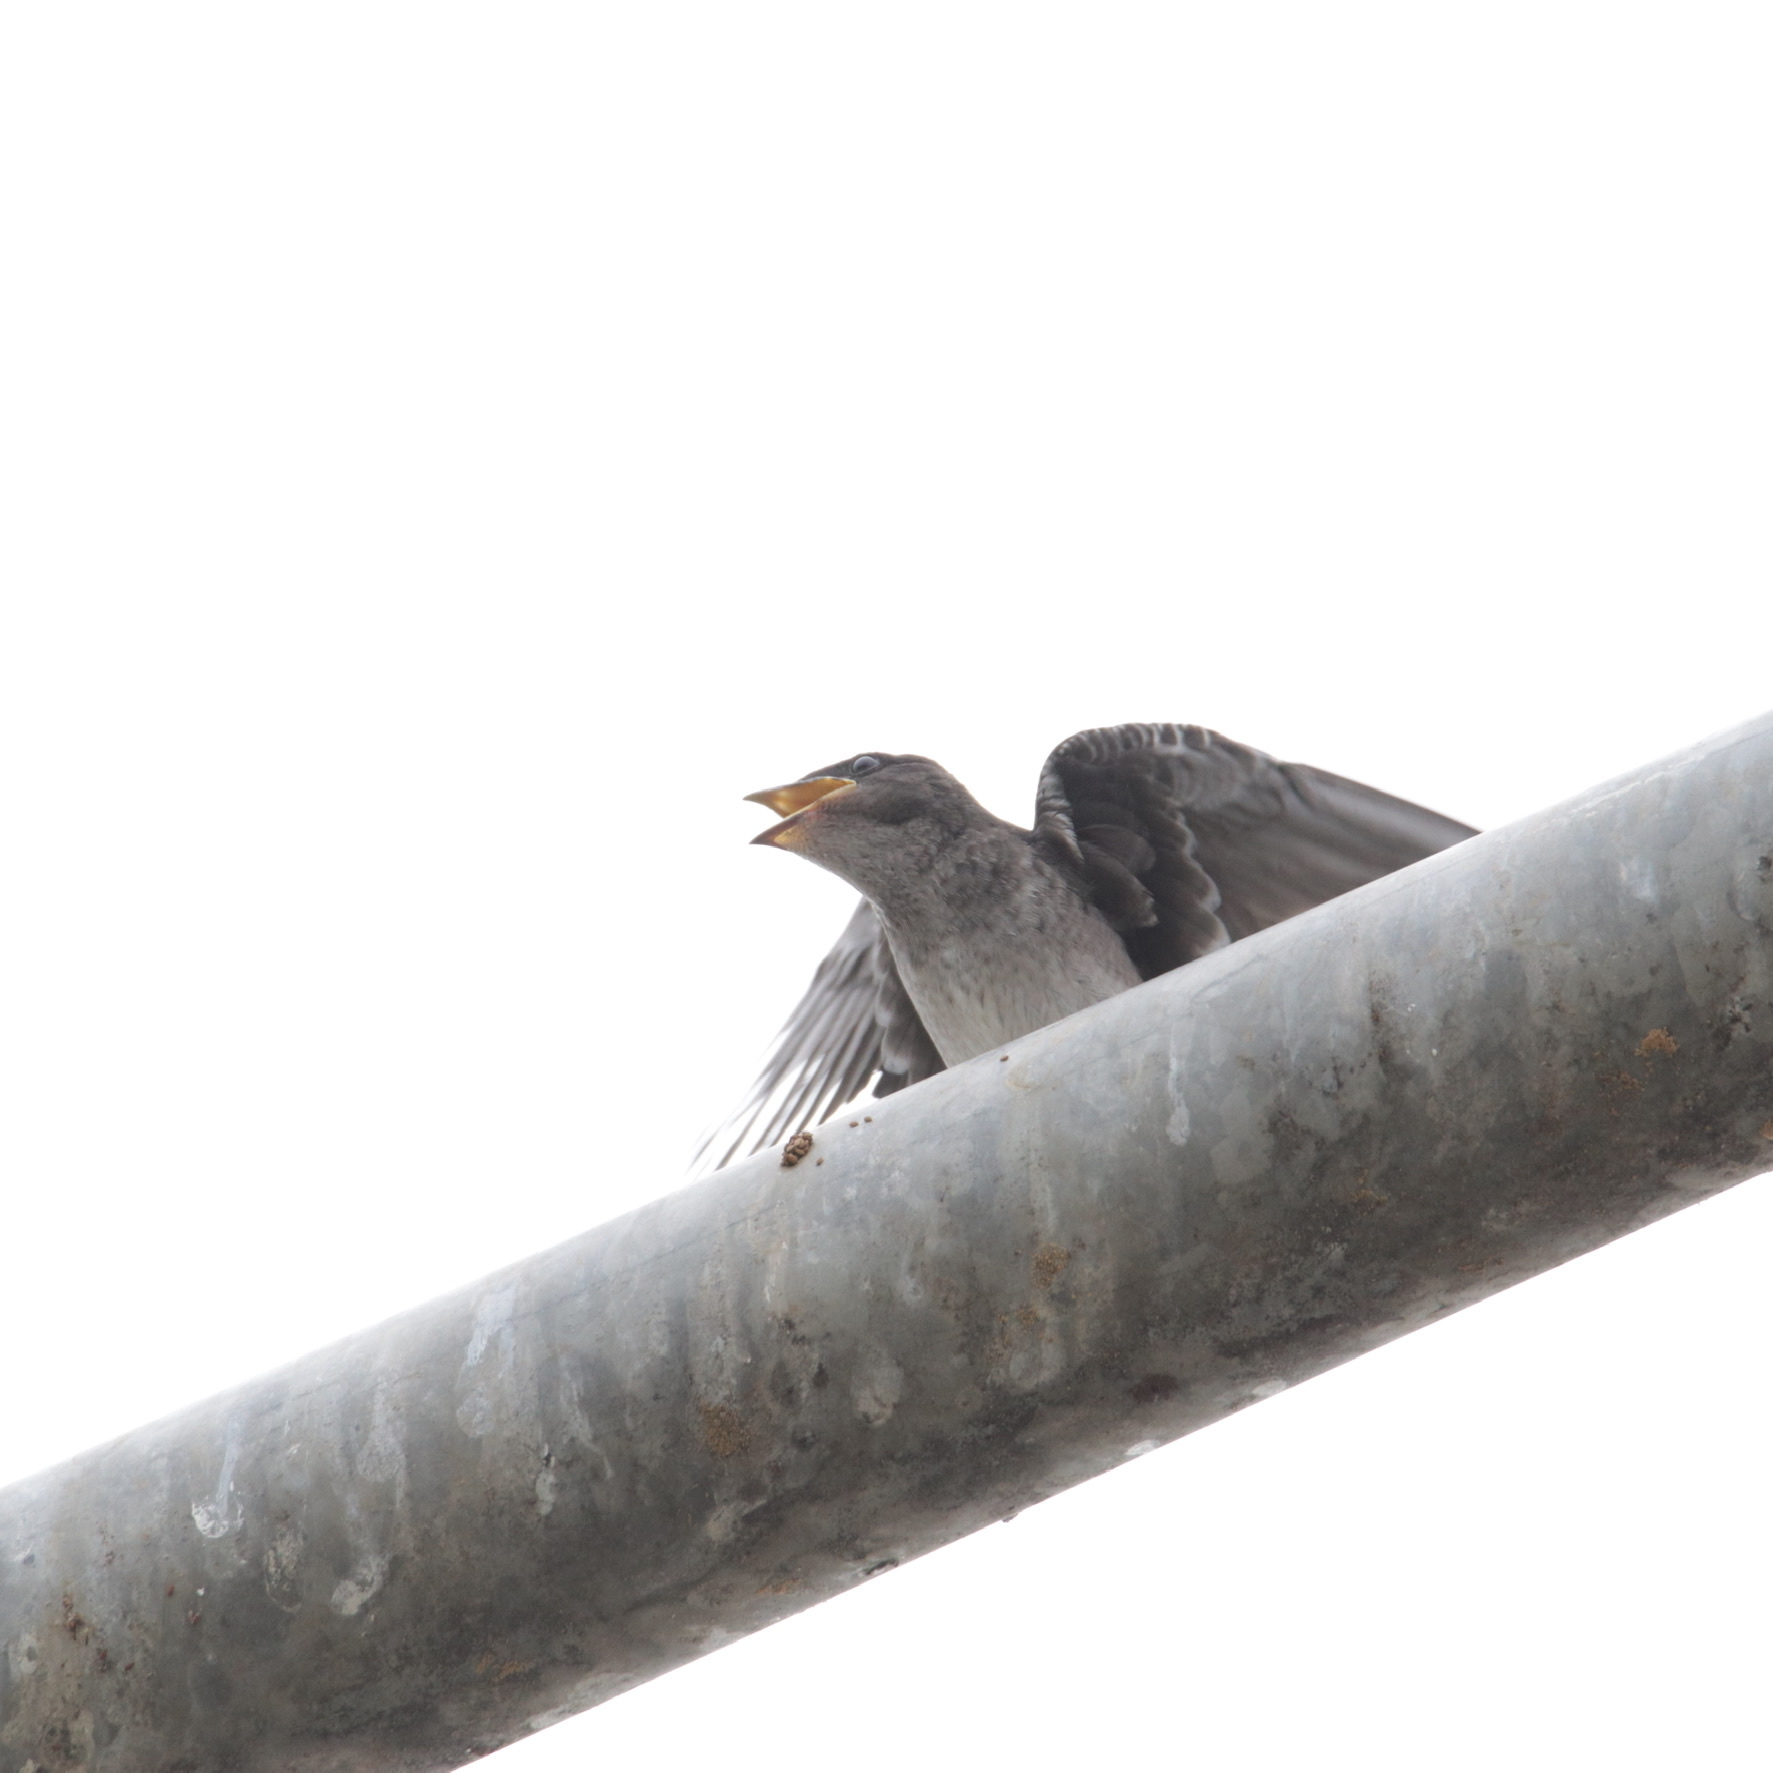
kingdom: Animalia
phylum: Chordata
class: Aves
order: Passeriformes
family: Hirundinidae
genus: Progne
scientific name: Progne chalybea
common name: Grey-breasted martin
